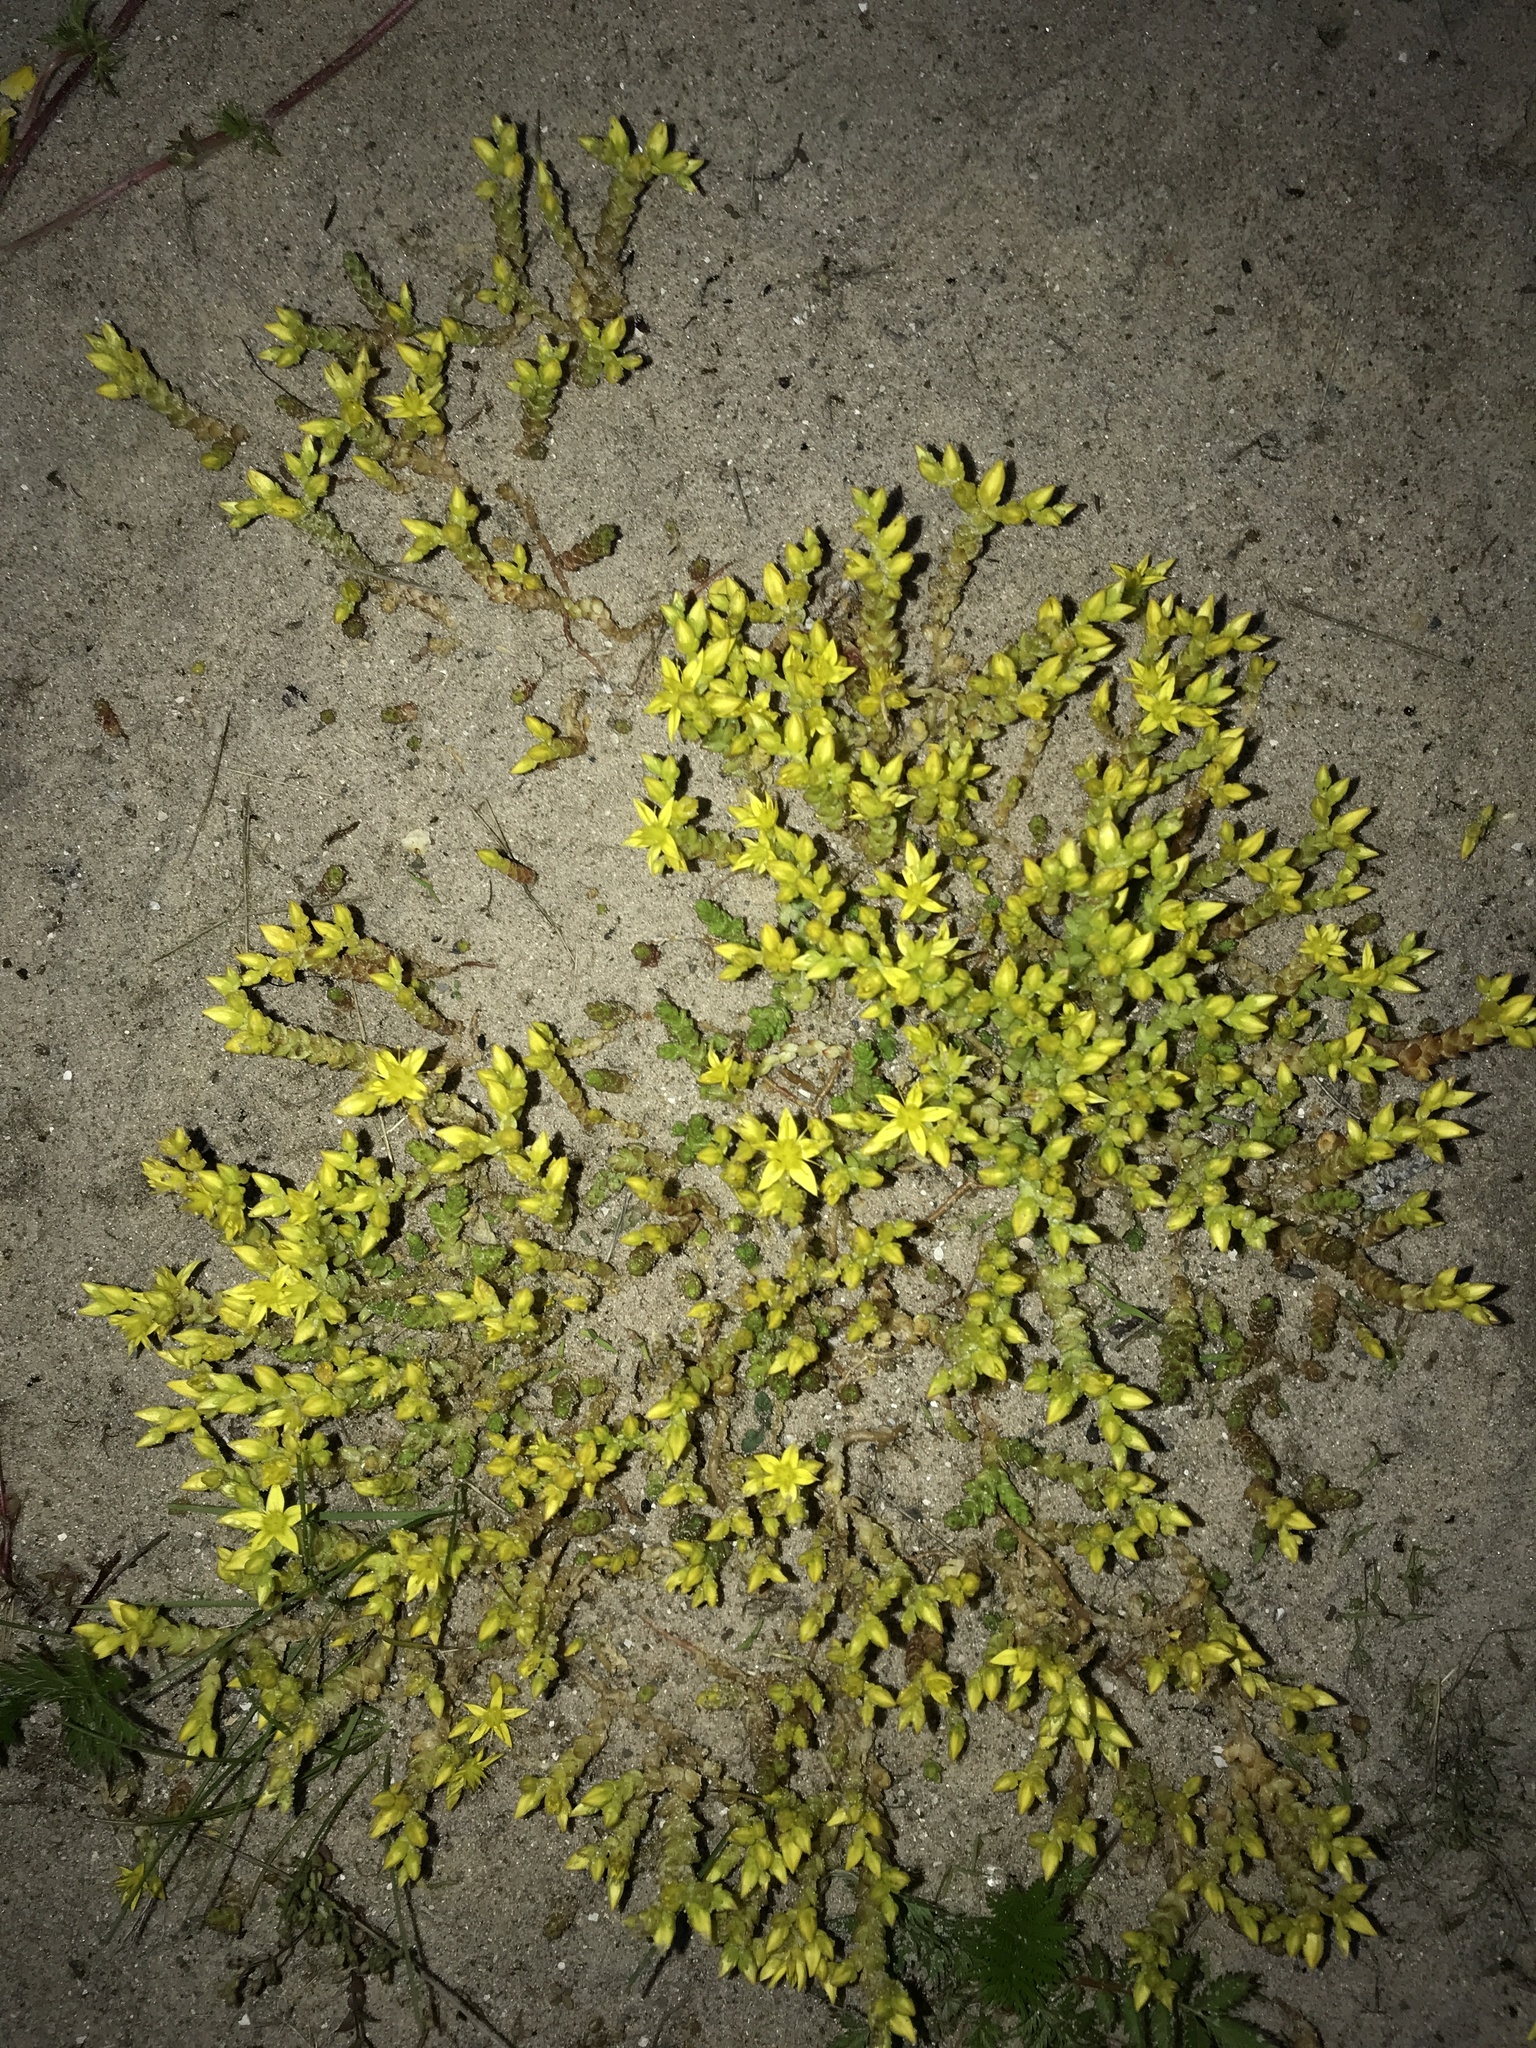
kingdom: Plantae
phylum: Tracheophyta
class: Magnoliopsida
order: Saxifragales
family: Crassulaceae
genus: Sedum
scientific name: Sedum acre
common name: Biting stonecrop
